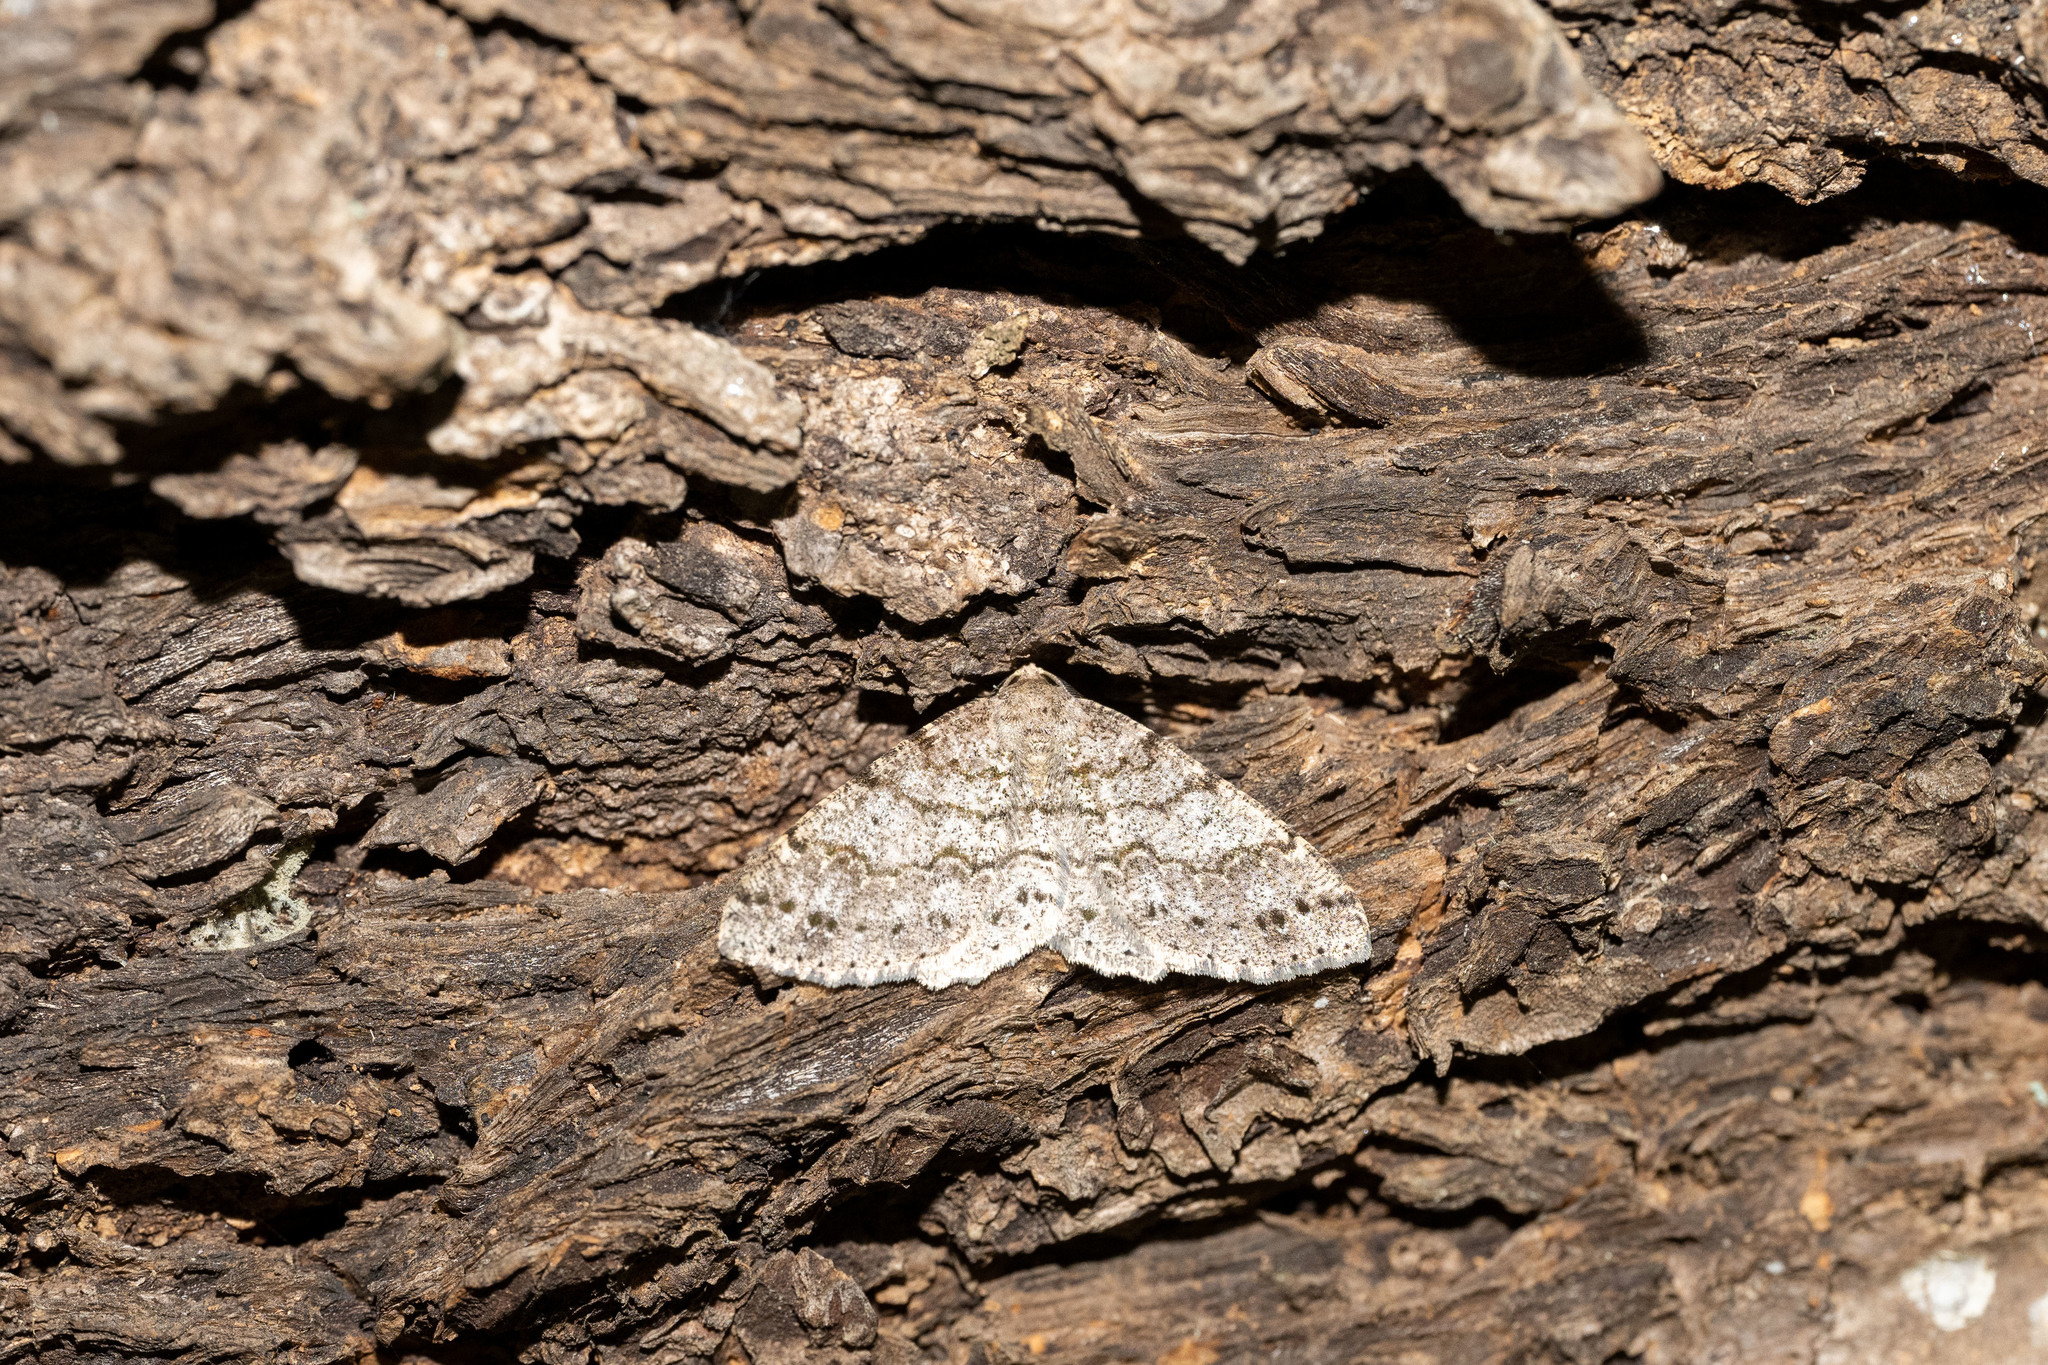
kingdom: Animalia
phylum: Arthropoda
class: Insecta
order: Lepidoptera
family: Geometridae
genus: Melanolophia
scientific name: Melanolophia imitata
